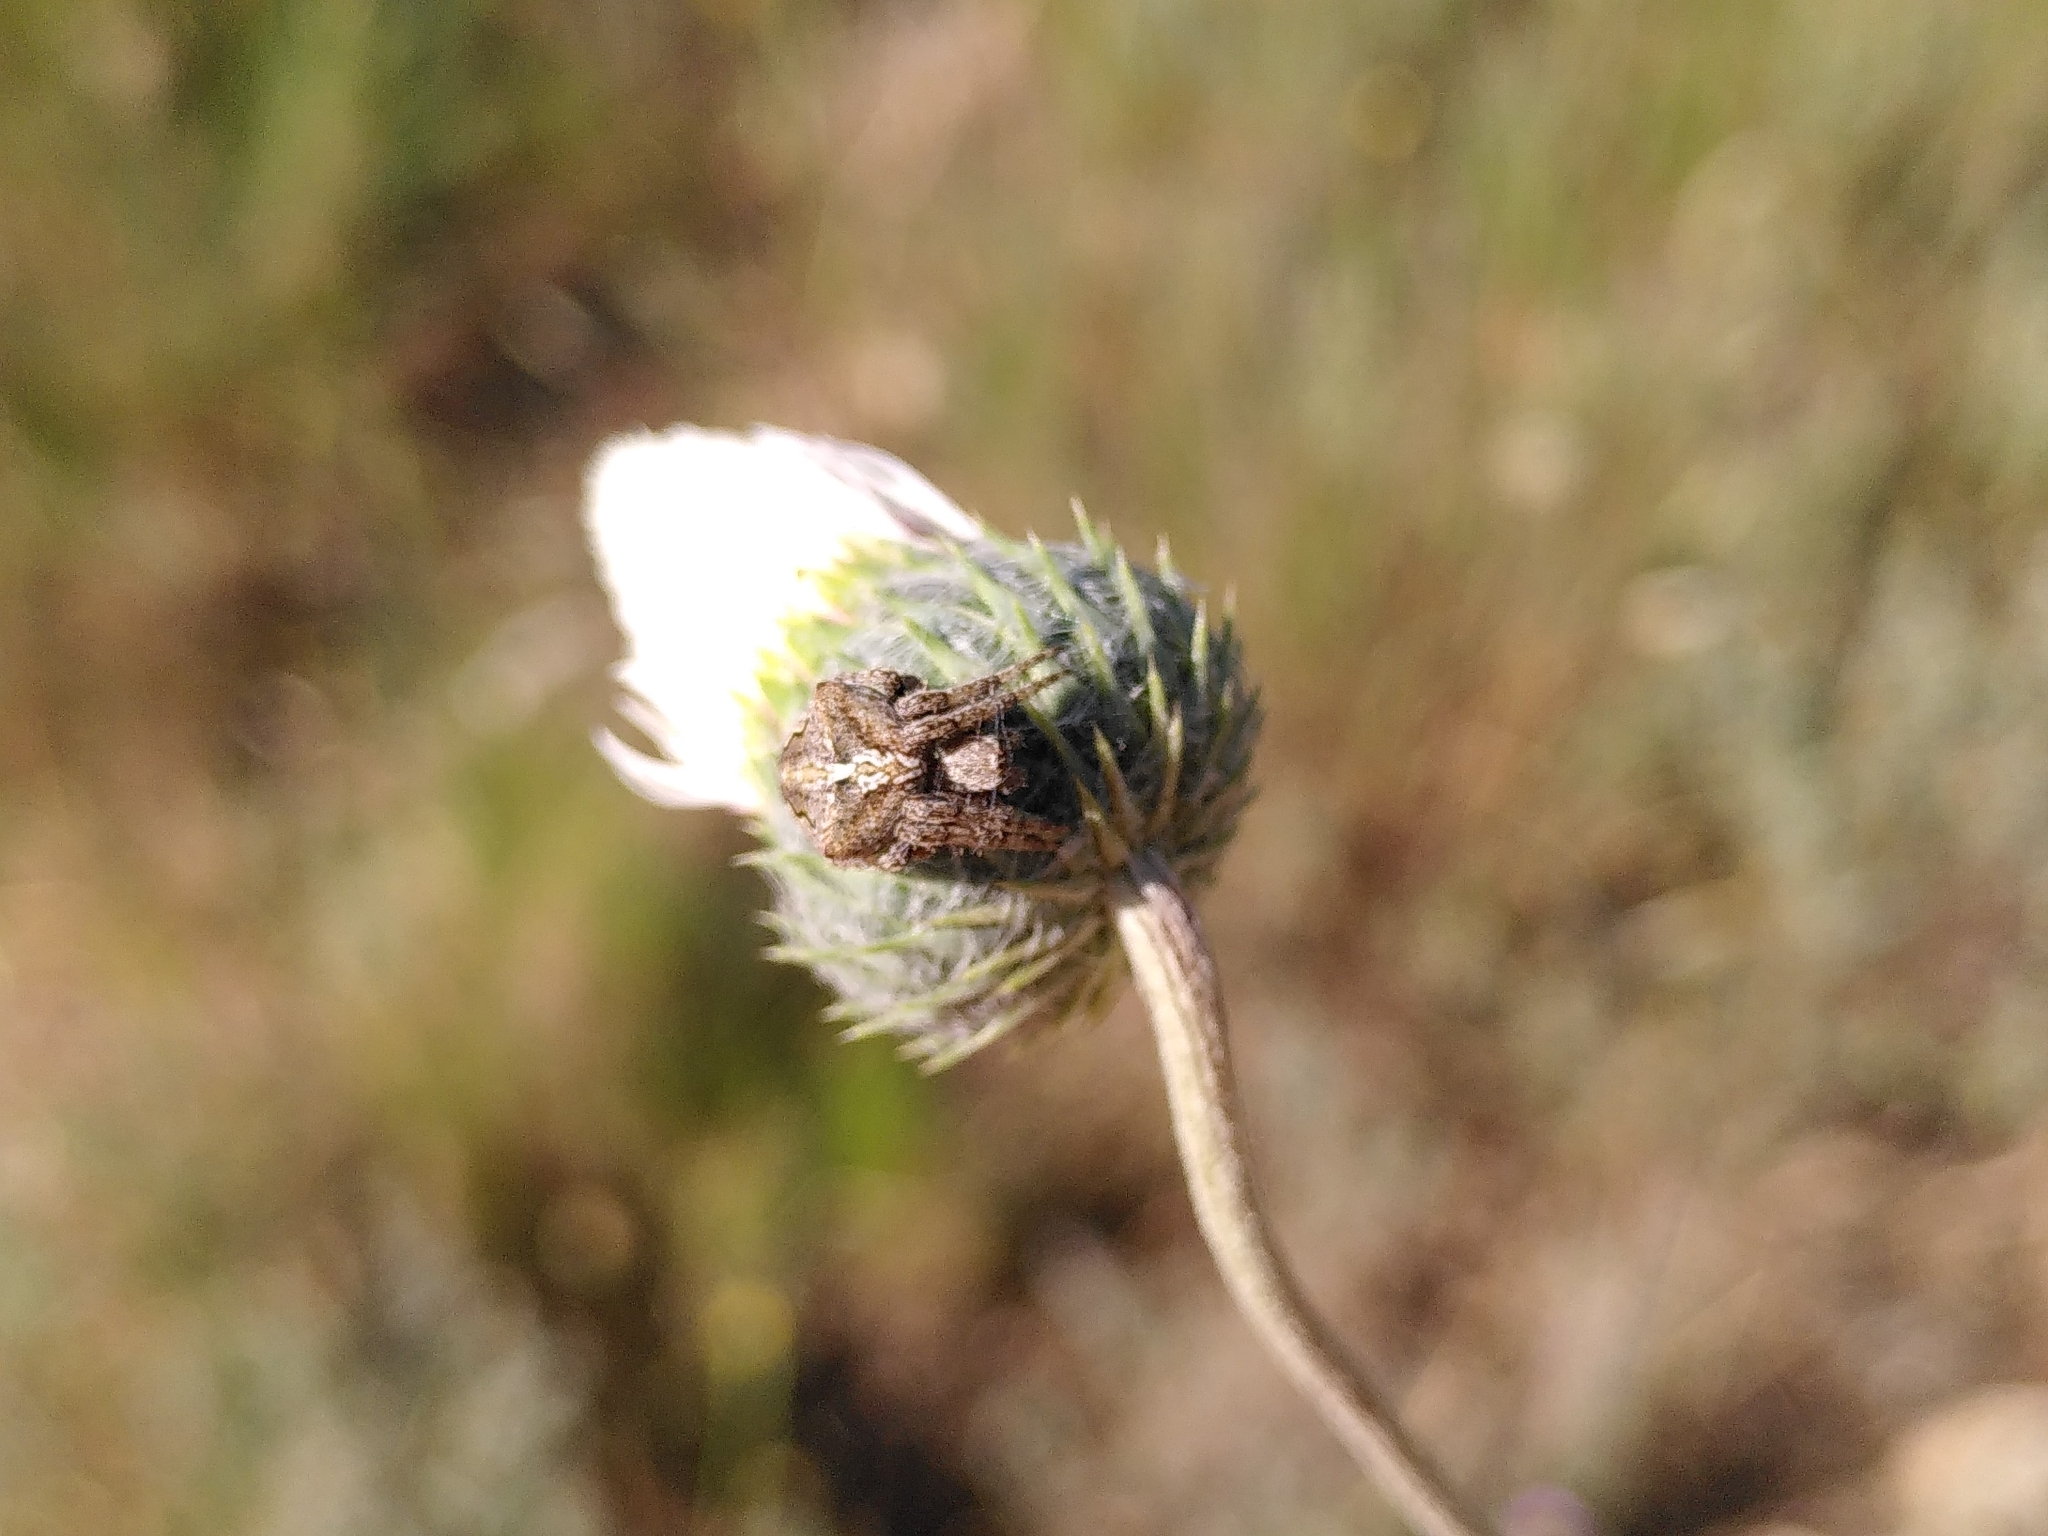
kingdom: Animalia
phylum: Arthropoda
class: Arachnida
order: Araneae
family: Araneidae
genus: Araneus
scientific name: Araneus angulatus
